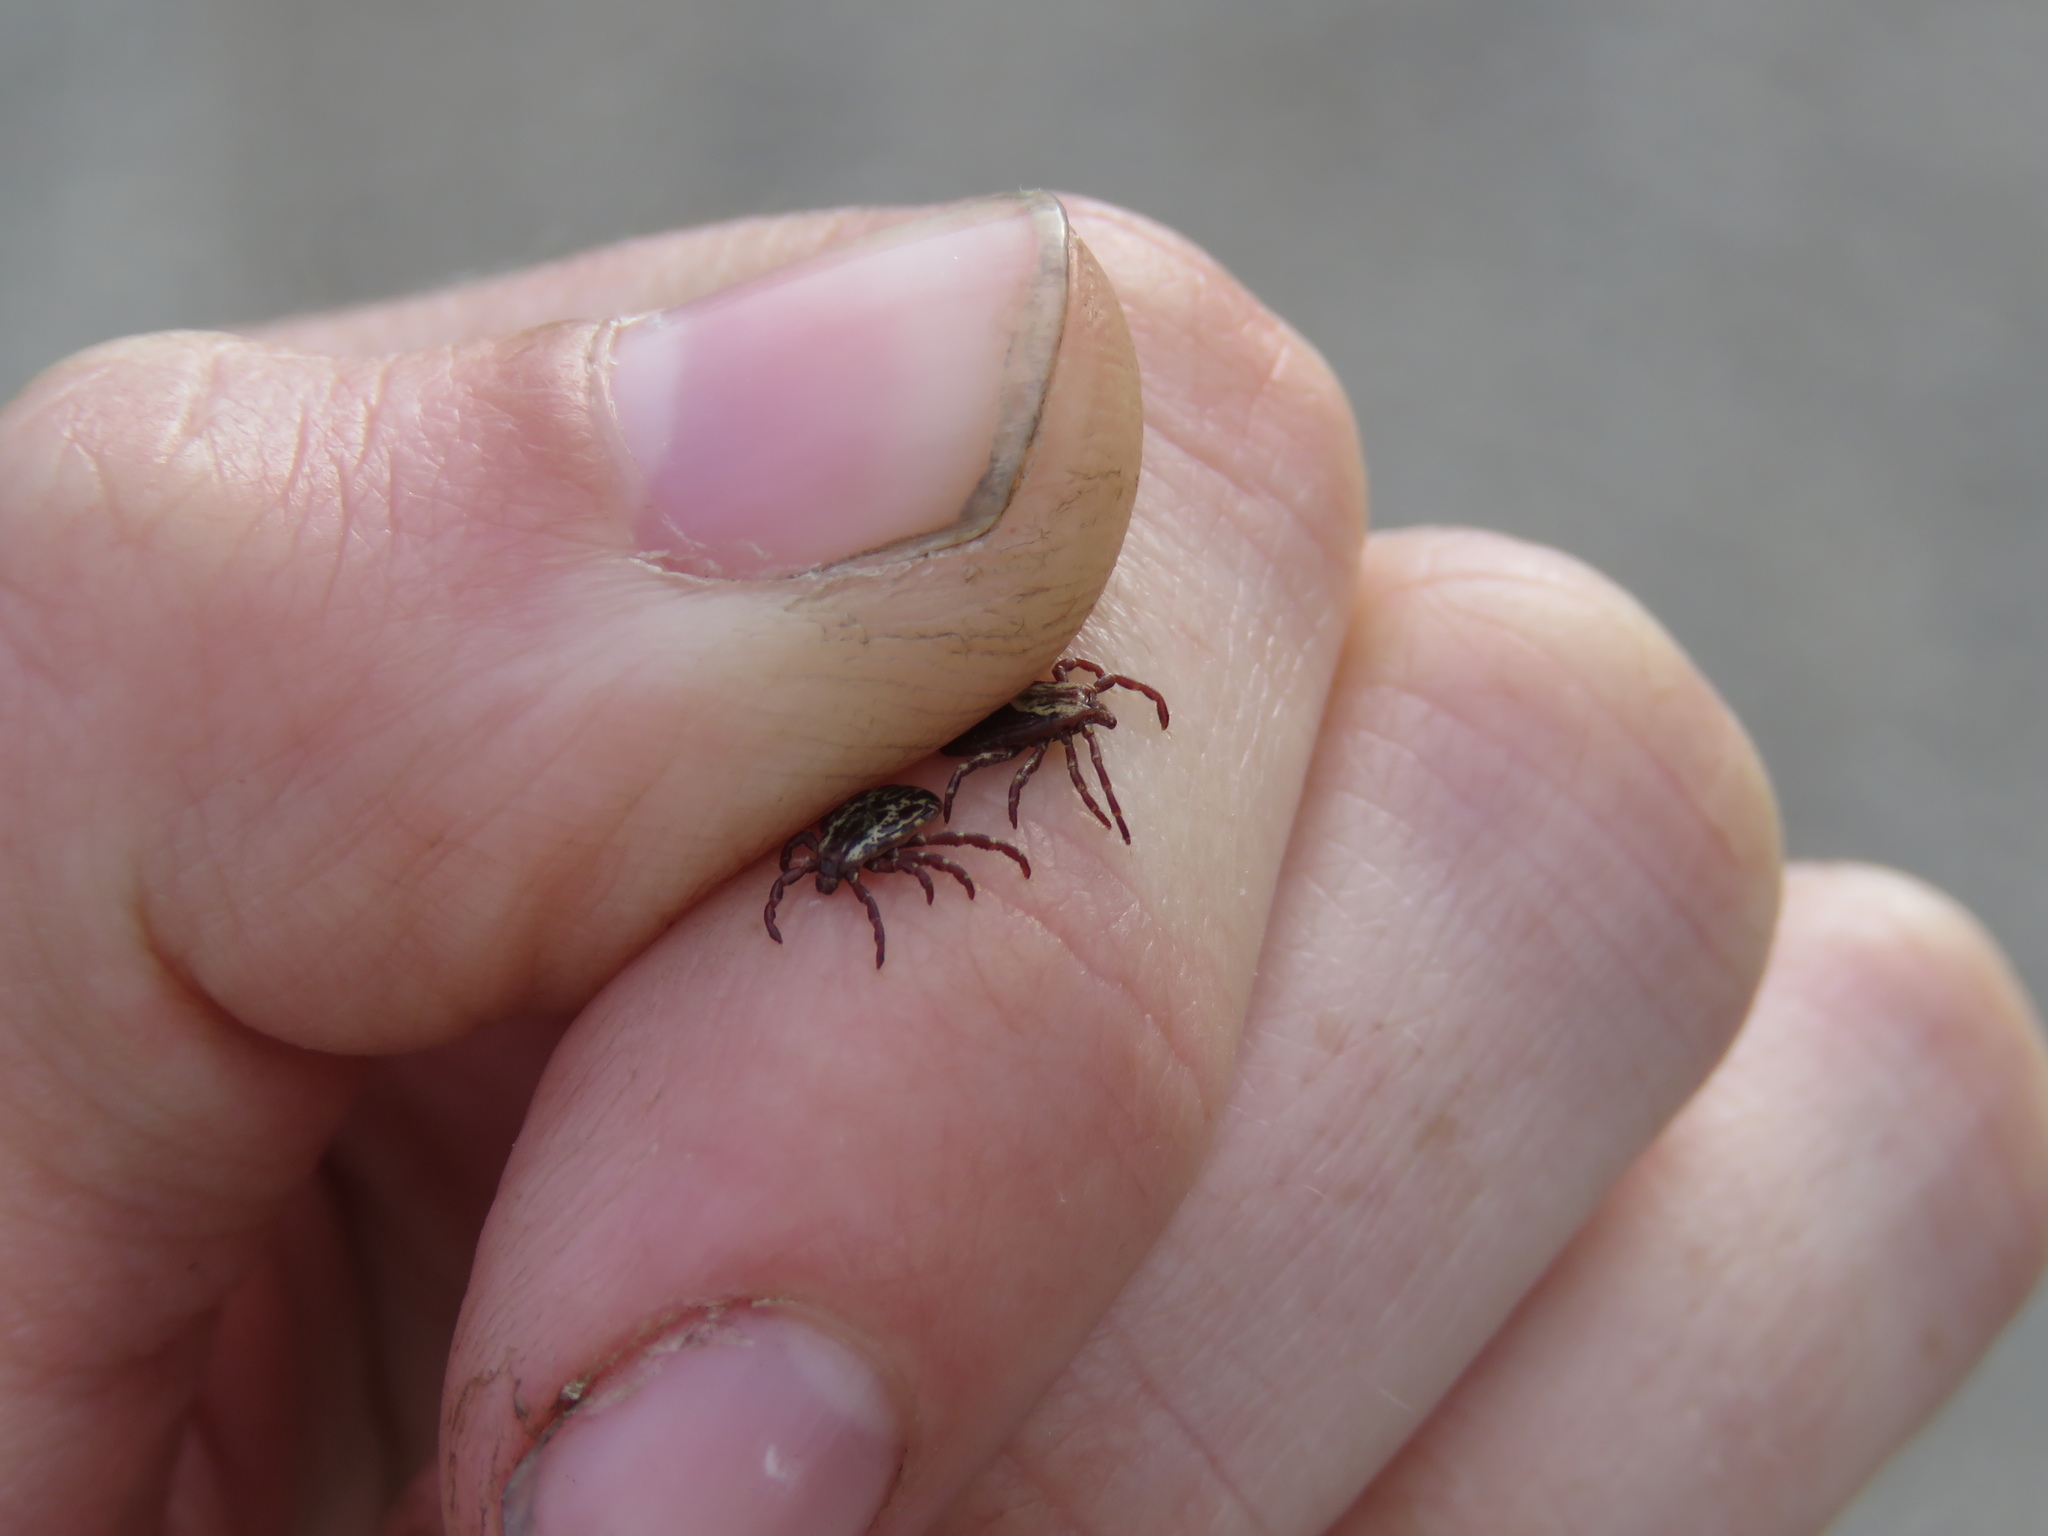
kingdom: Animalia
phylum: Arthropoda
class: Arachnida
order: Ixodida
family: Ixodidae
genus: Dermacentor
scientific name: Dermacentor variabilis
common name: American dog tick
